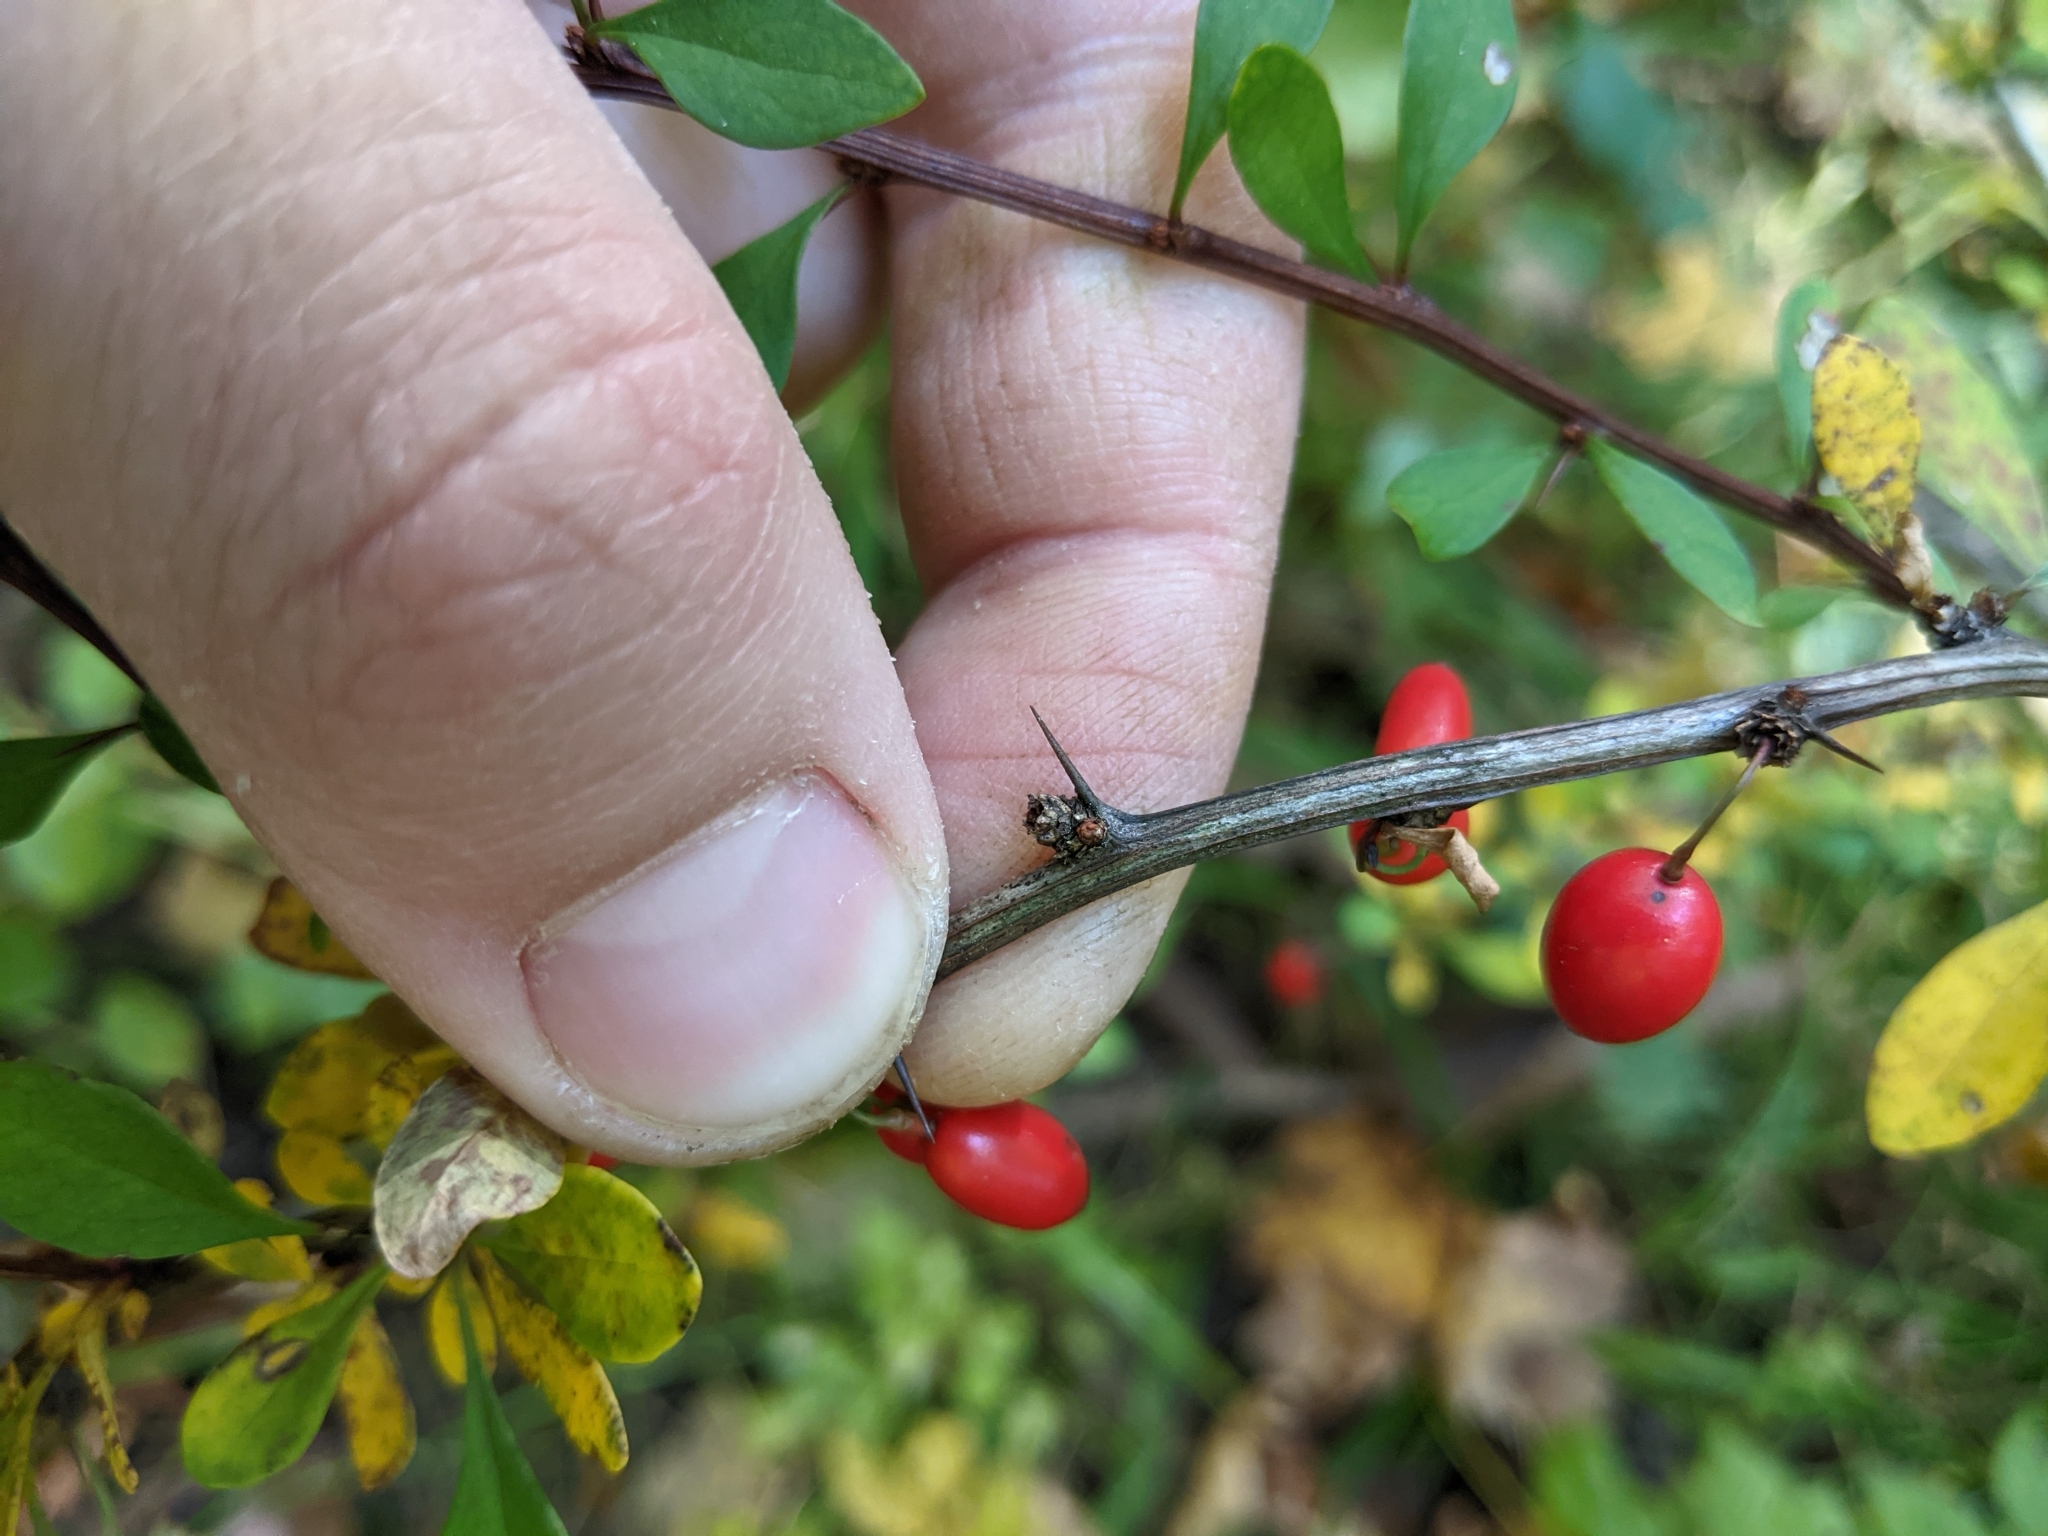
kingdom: Plantae
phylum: Tracheophyta
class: Magnoliopsida
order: Ranunculales
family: Berberidaceae
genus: Berberis
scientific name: Berberis thunbergii
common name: Japanese barberry
